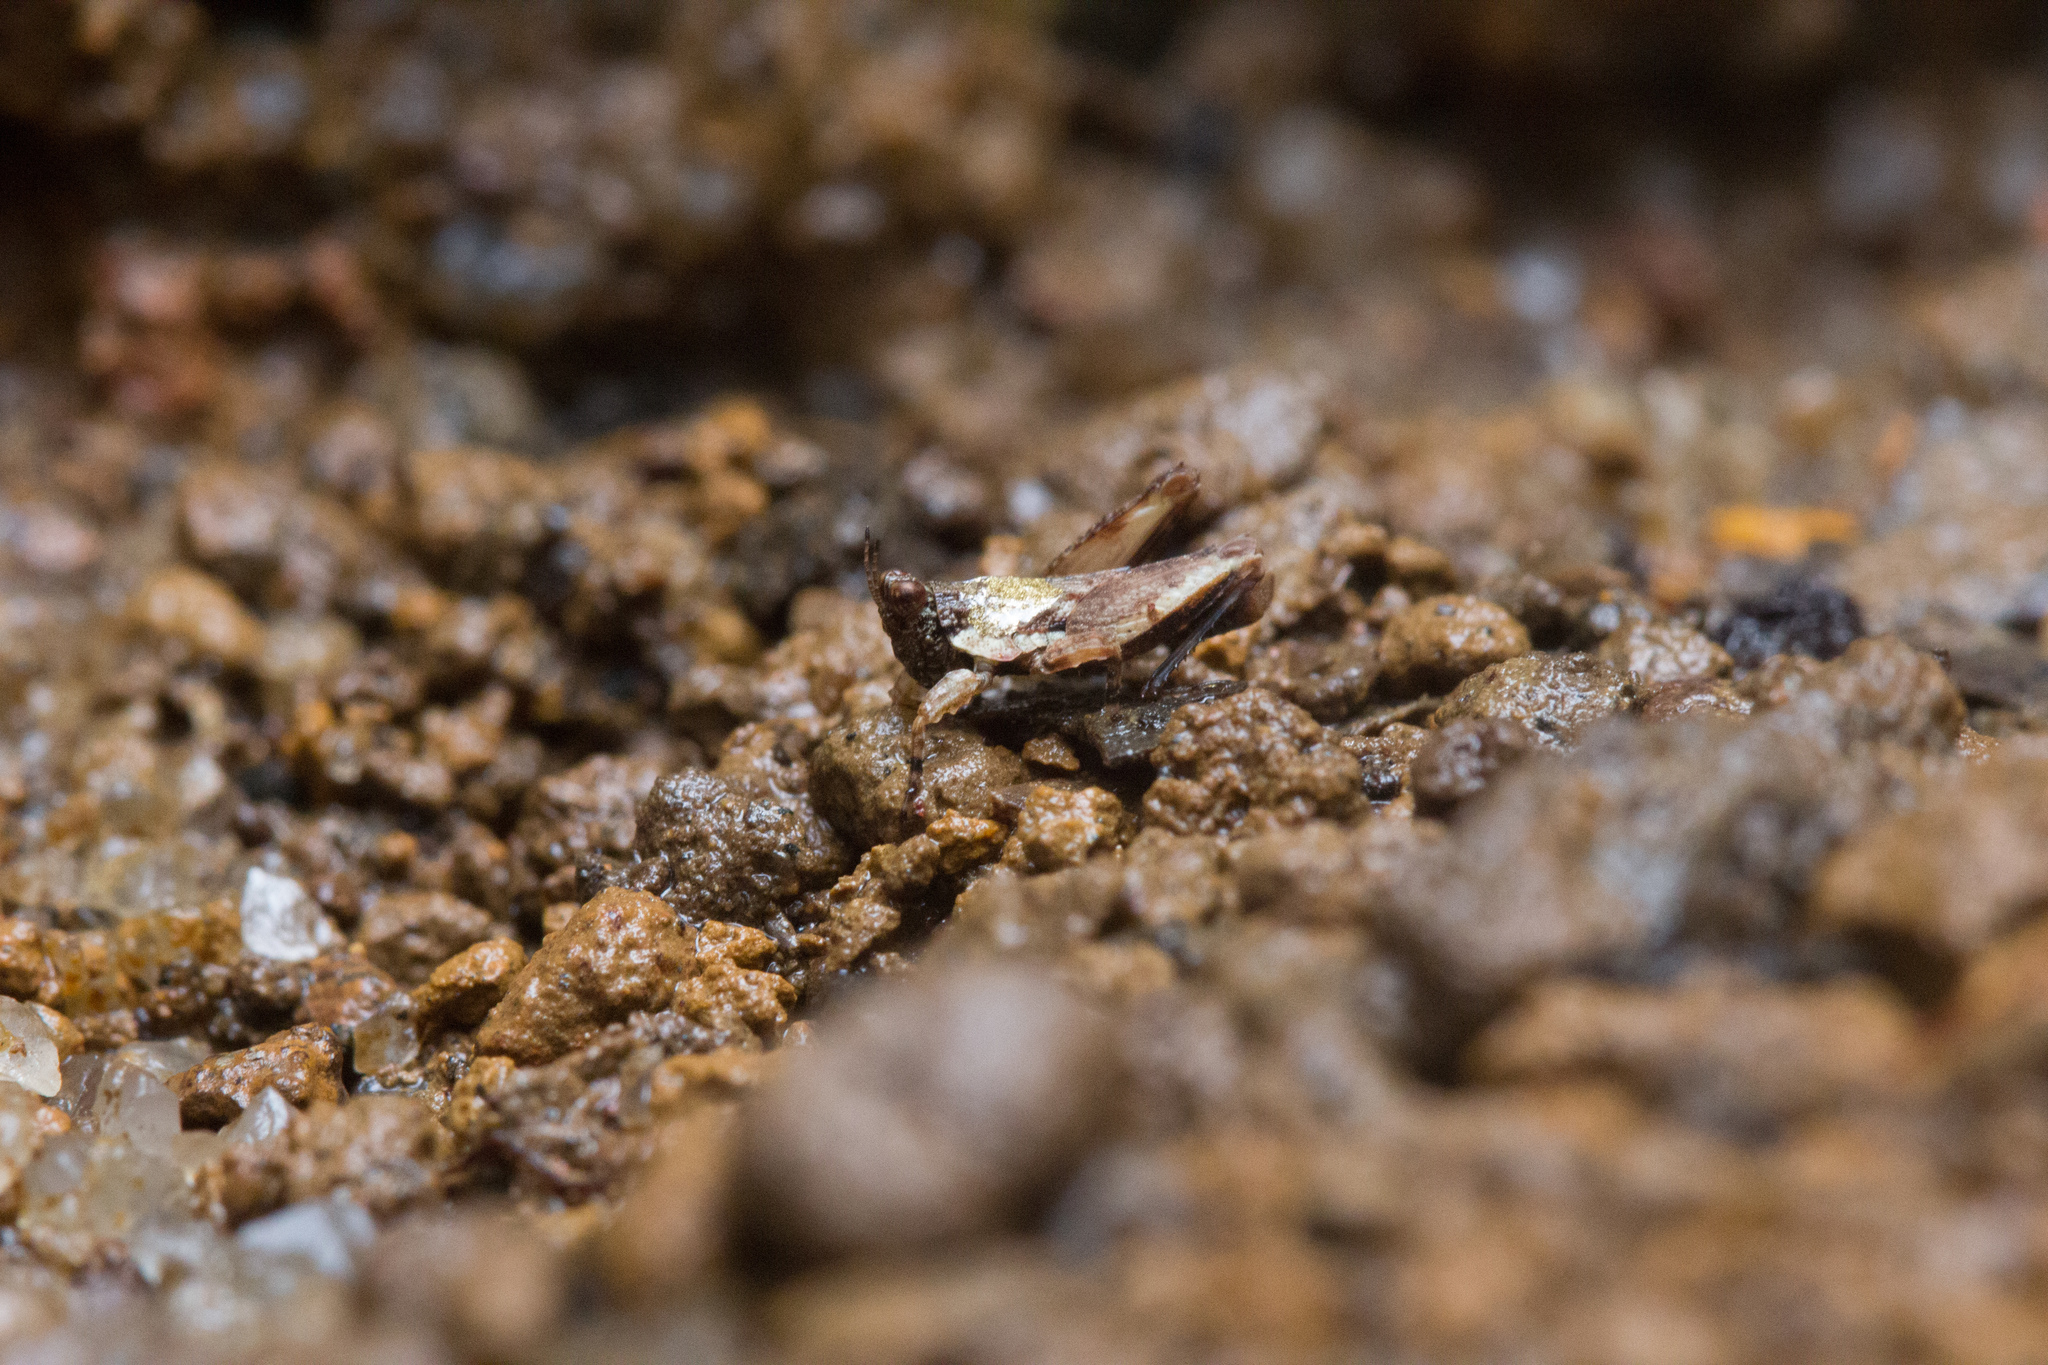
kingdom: Animalia
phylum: Arthropoda
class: Insecta
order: Orthoptera
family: Tetrigidae
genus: Amphinotus
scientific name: Amphinotus nymphula
